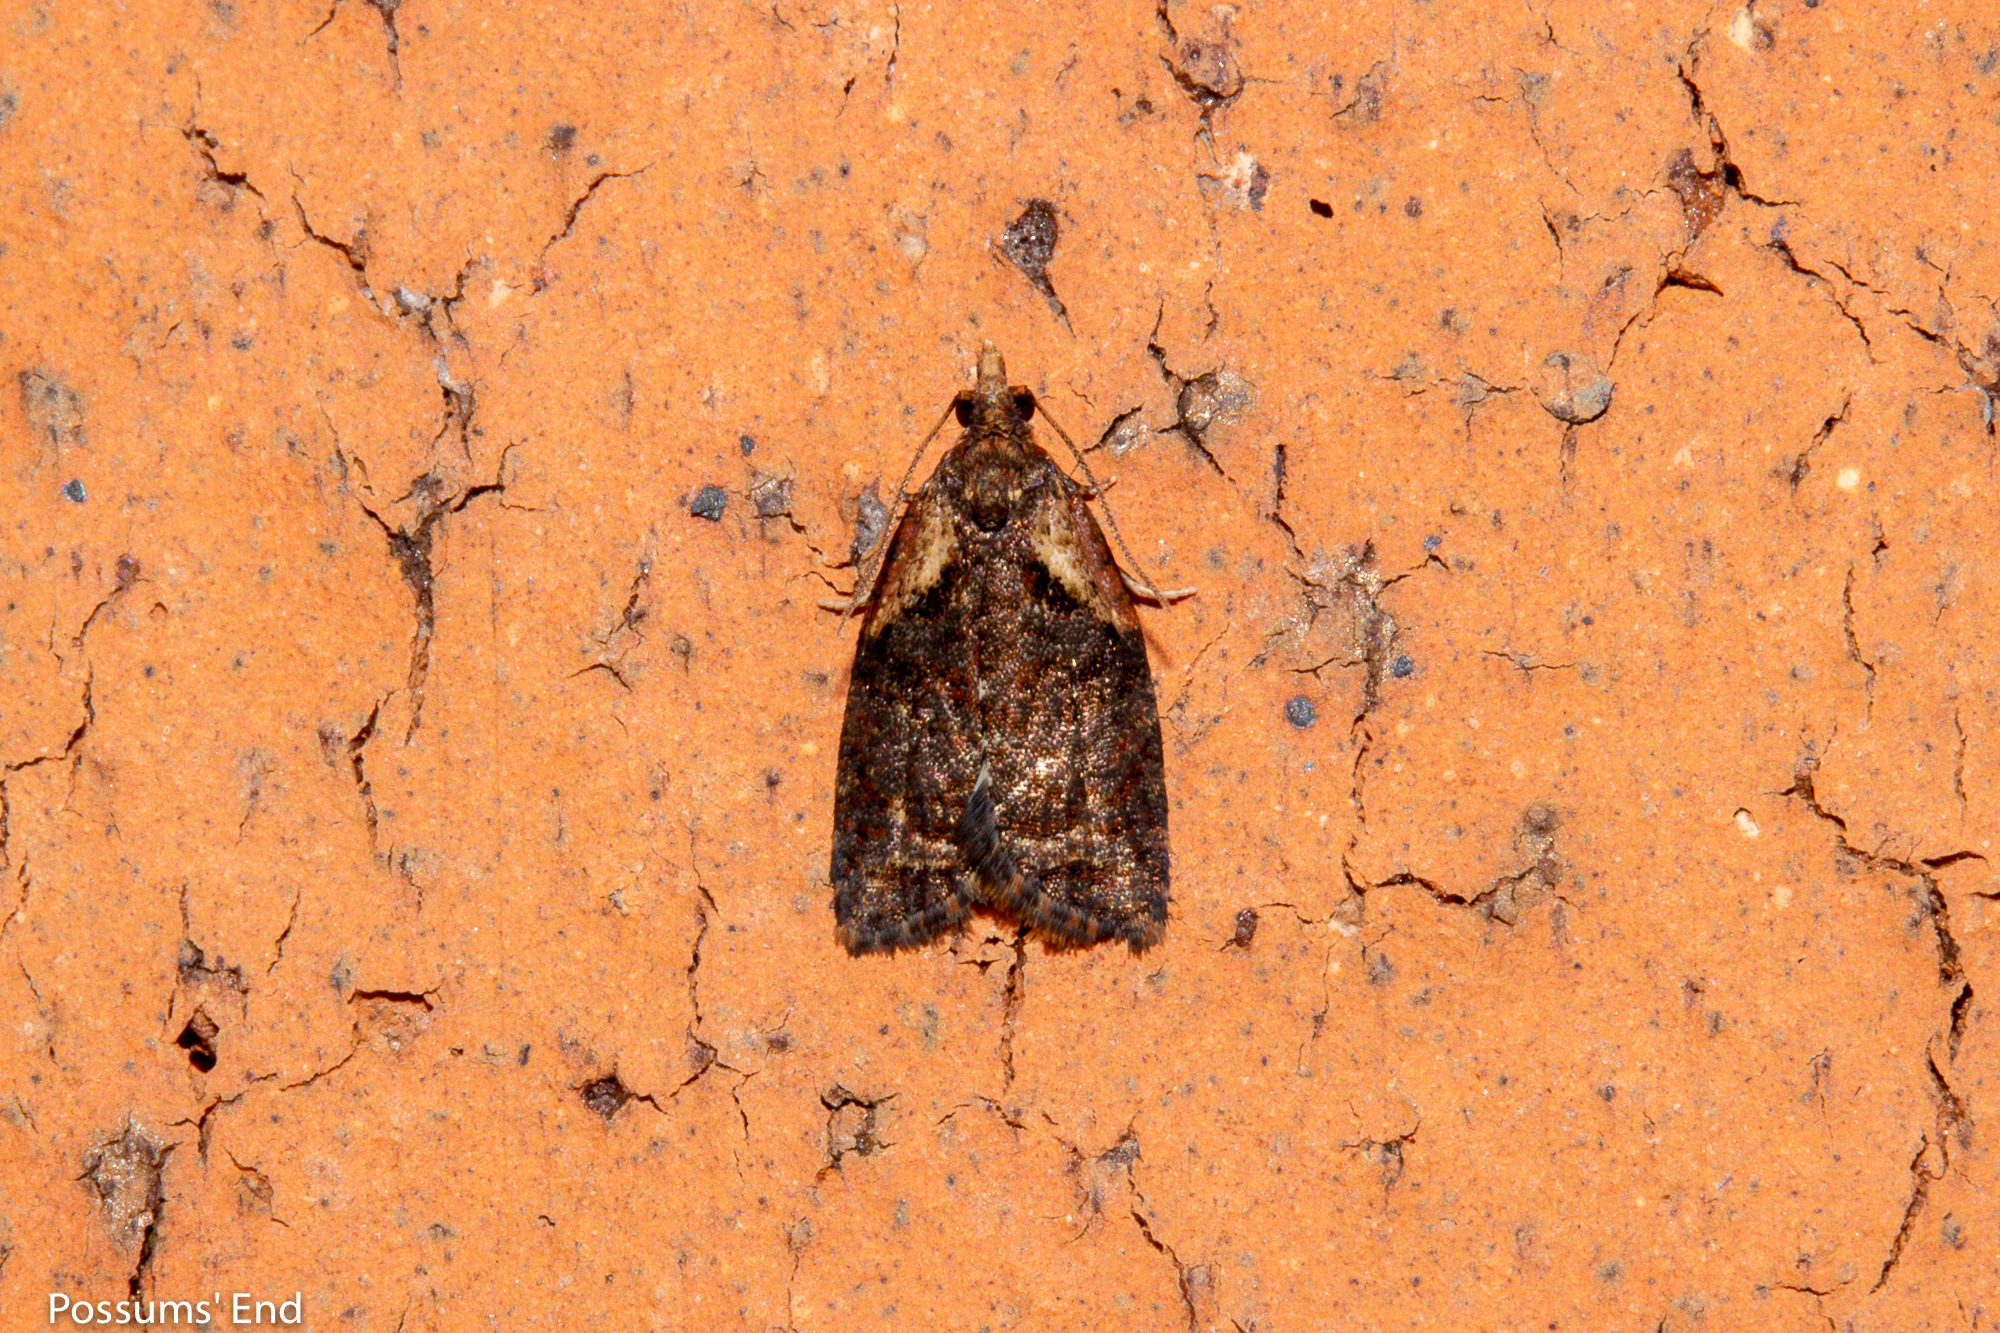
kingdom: Animalia
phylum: Arthropoda
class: Insecta
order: Lepidoptera
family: Tortricidae
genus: Capua
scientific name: Capua intractana
